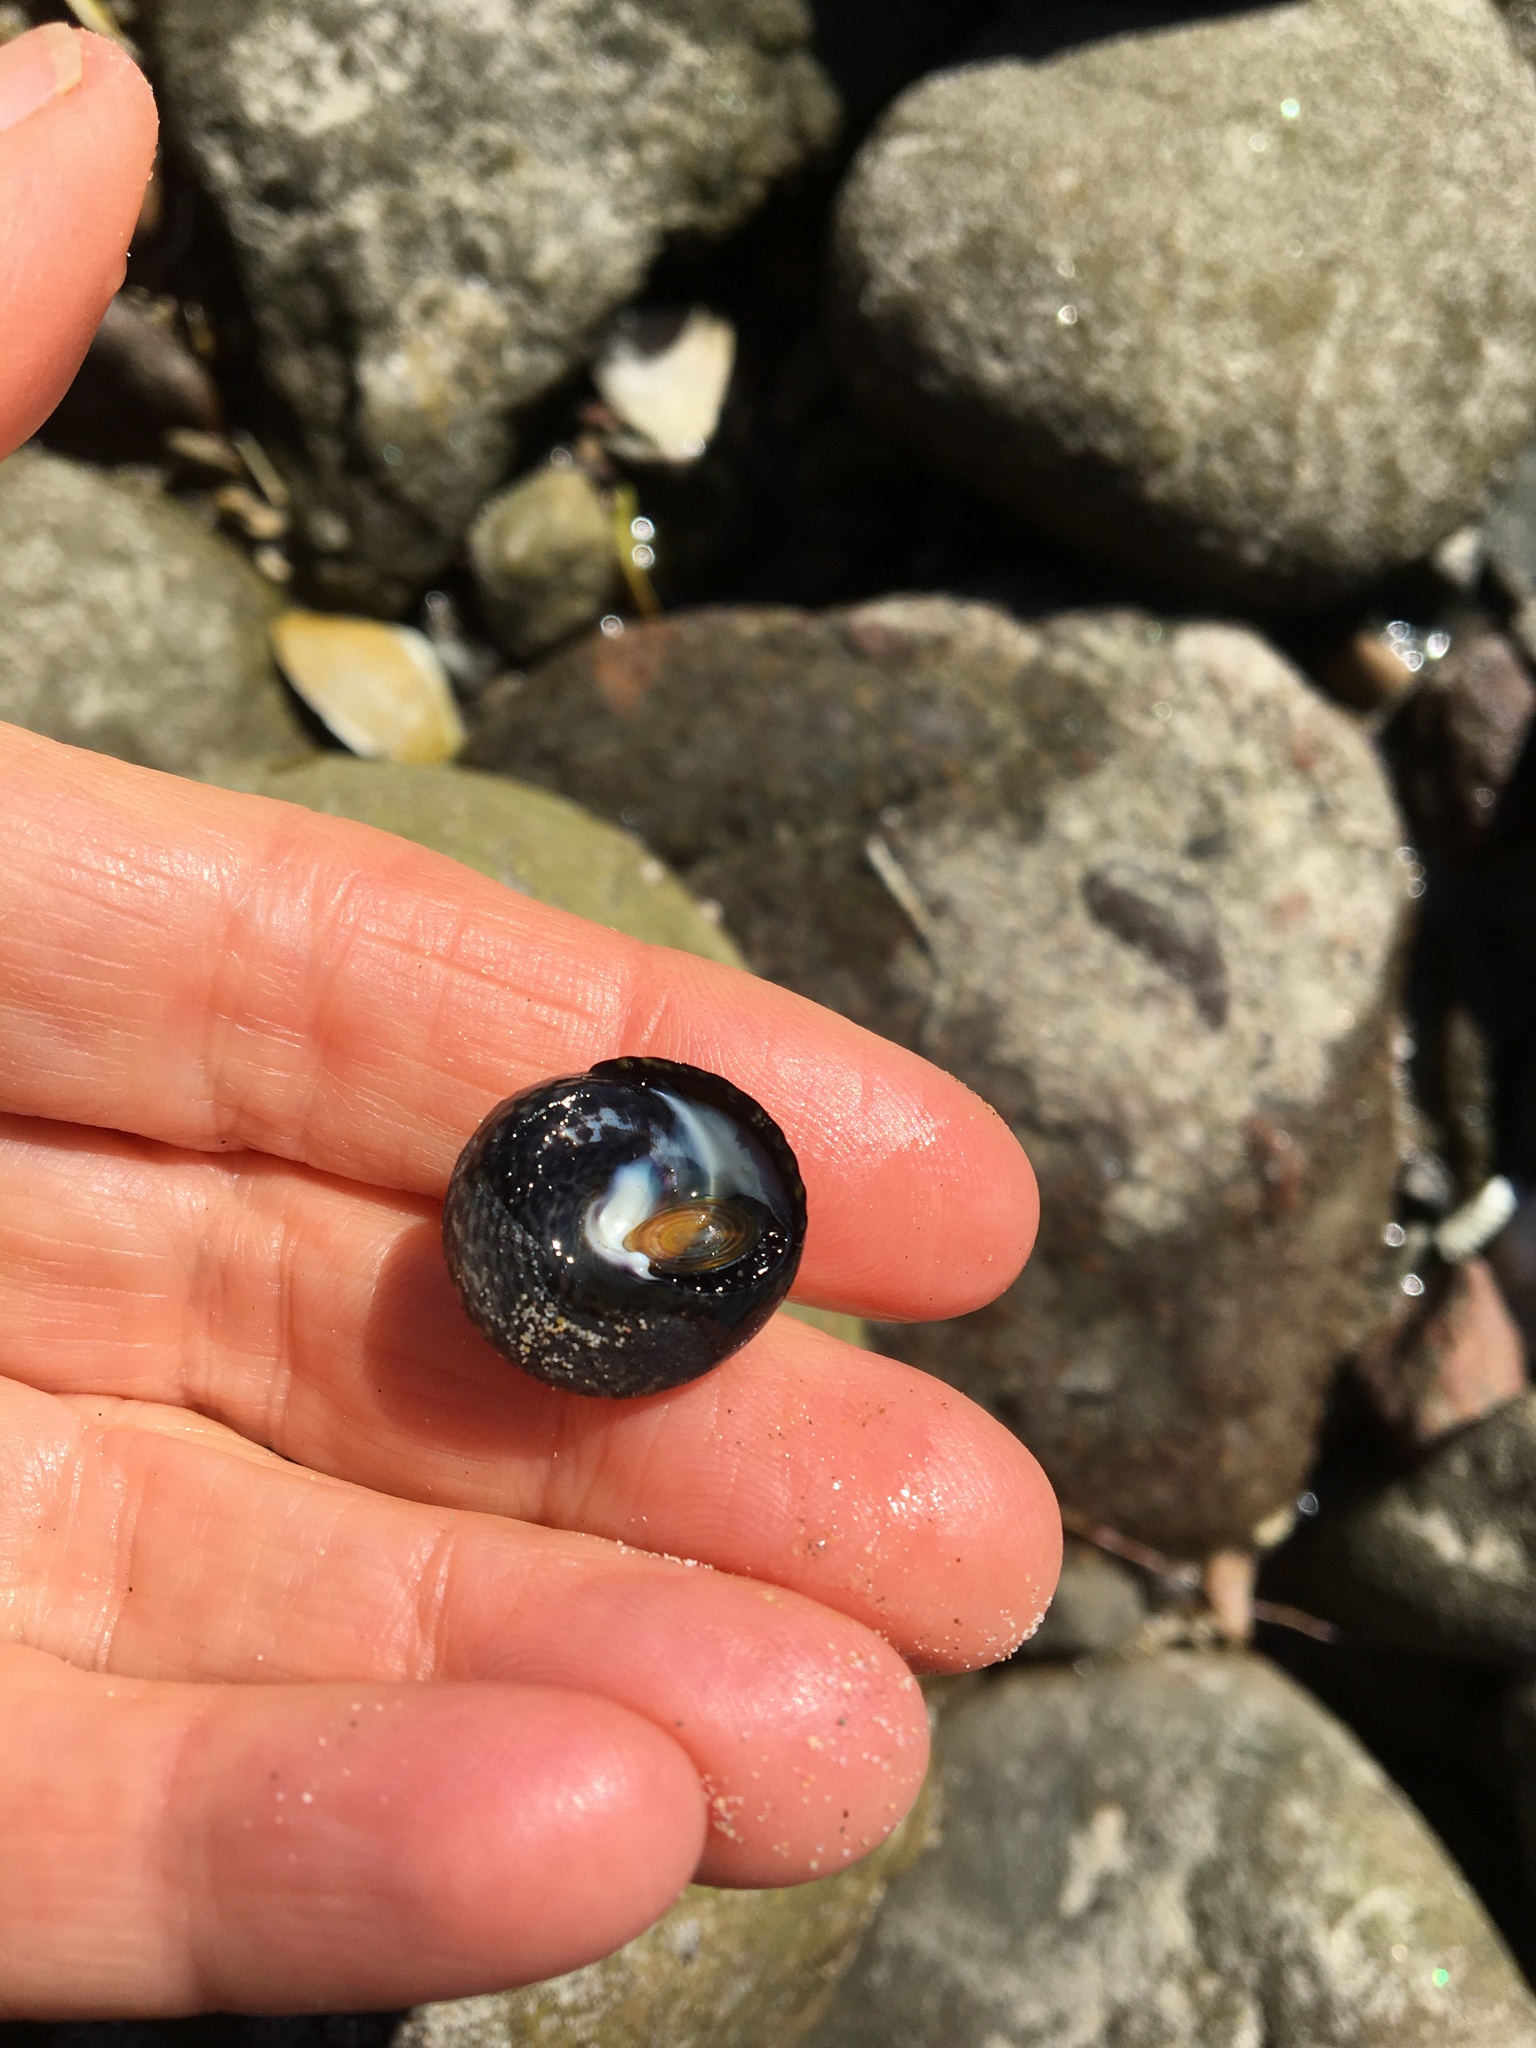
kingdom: Animalia
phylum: Mollusca
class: Gastropoda
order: Trochida
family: Tegulidae
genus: Tegula
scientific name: Tegula gallina
